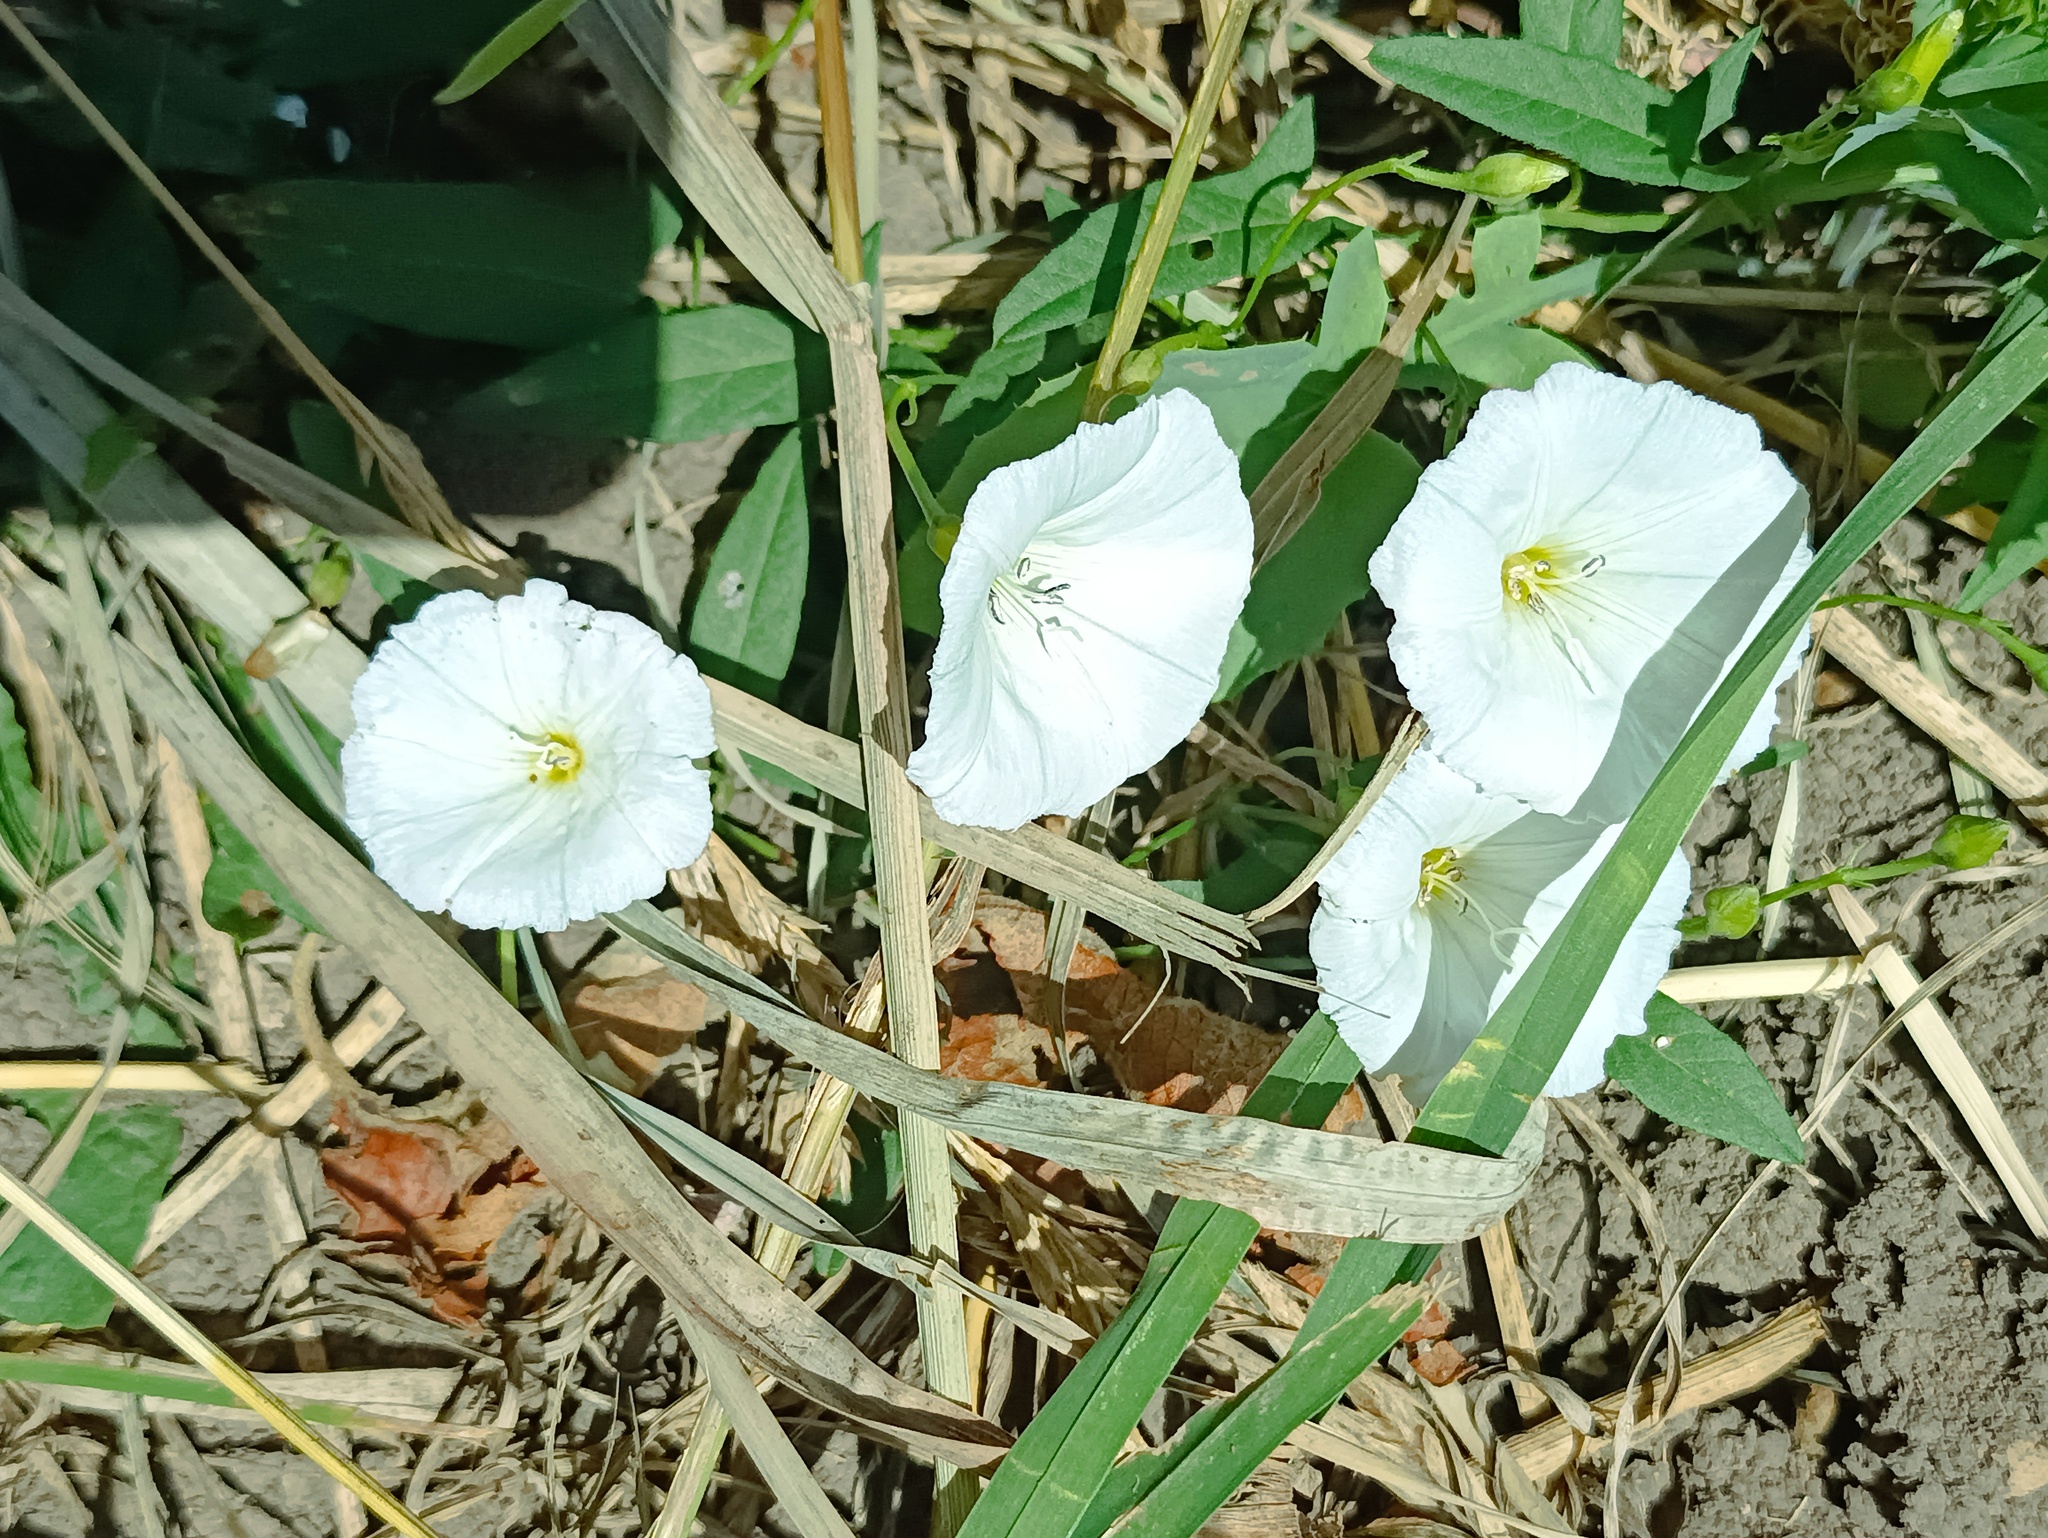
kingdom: Plantae
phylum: Tracheophyta
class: Magnoliopsida
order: Solanales
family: Convolvulaceae
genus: Convolvulus
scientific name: Convolvulus arvensis
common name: Field bindweed
